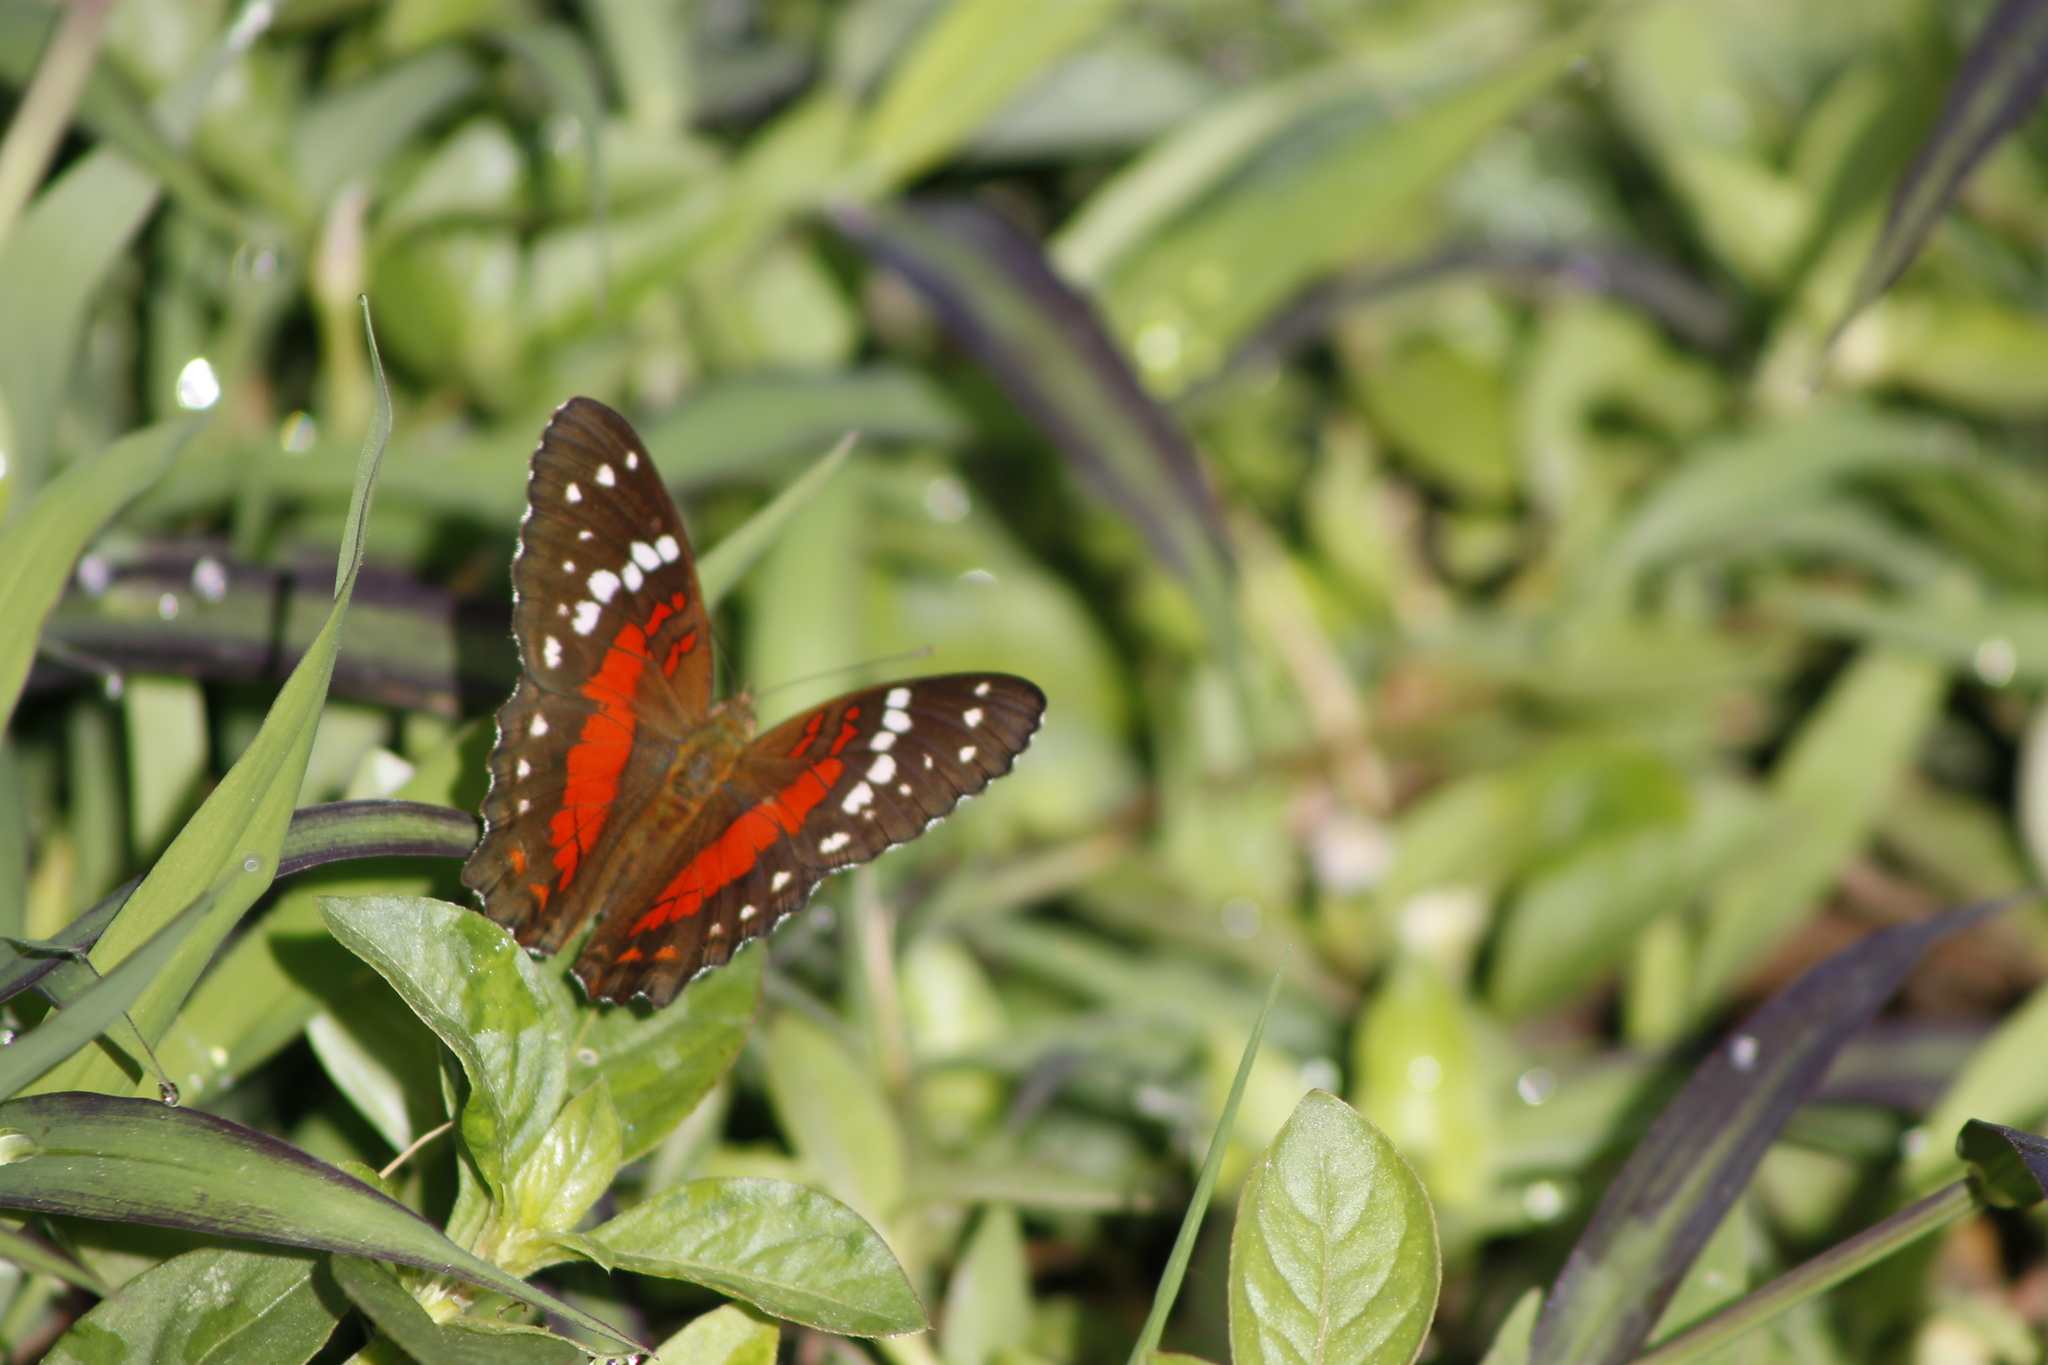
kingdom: Animalia
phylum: Arthropoda
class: Insecta
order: Lepidoptera
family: Nymphalidae
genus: Anartia
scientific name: Anartia amathea
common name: Red peacock
